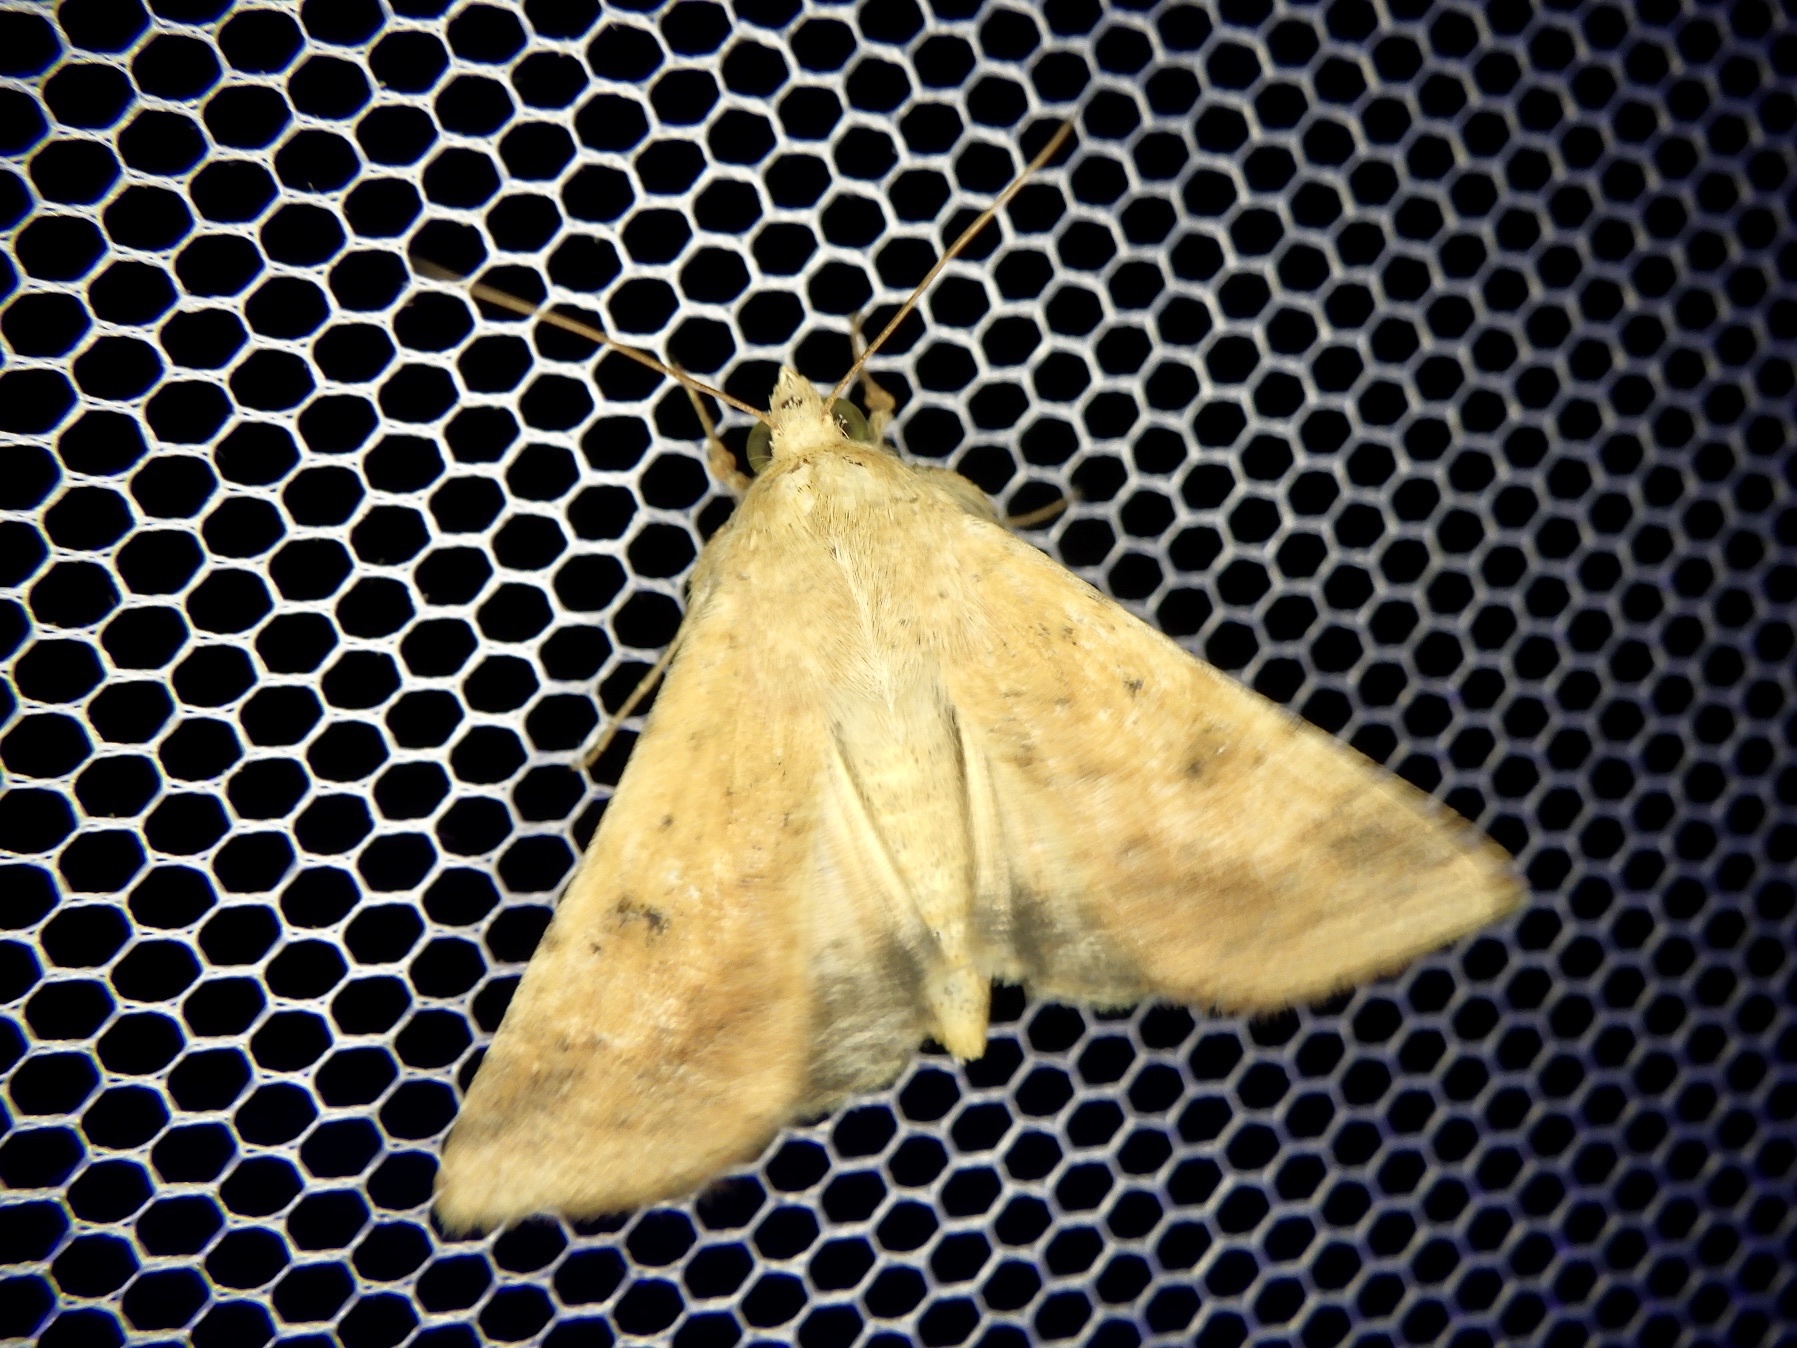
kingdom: Animalia
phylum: Arthropoda
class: Insecta
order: Lepidoptera
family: Noctuidae
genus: Helicoverpa
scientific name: Helicoverpa armigera
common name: Cotton bollworm
